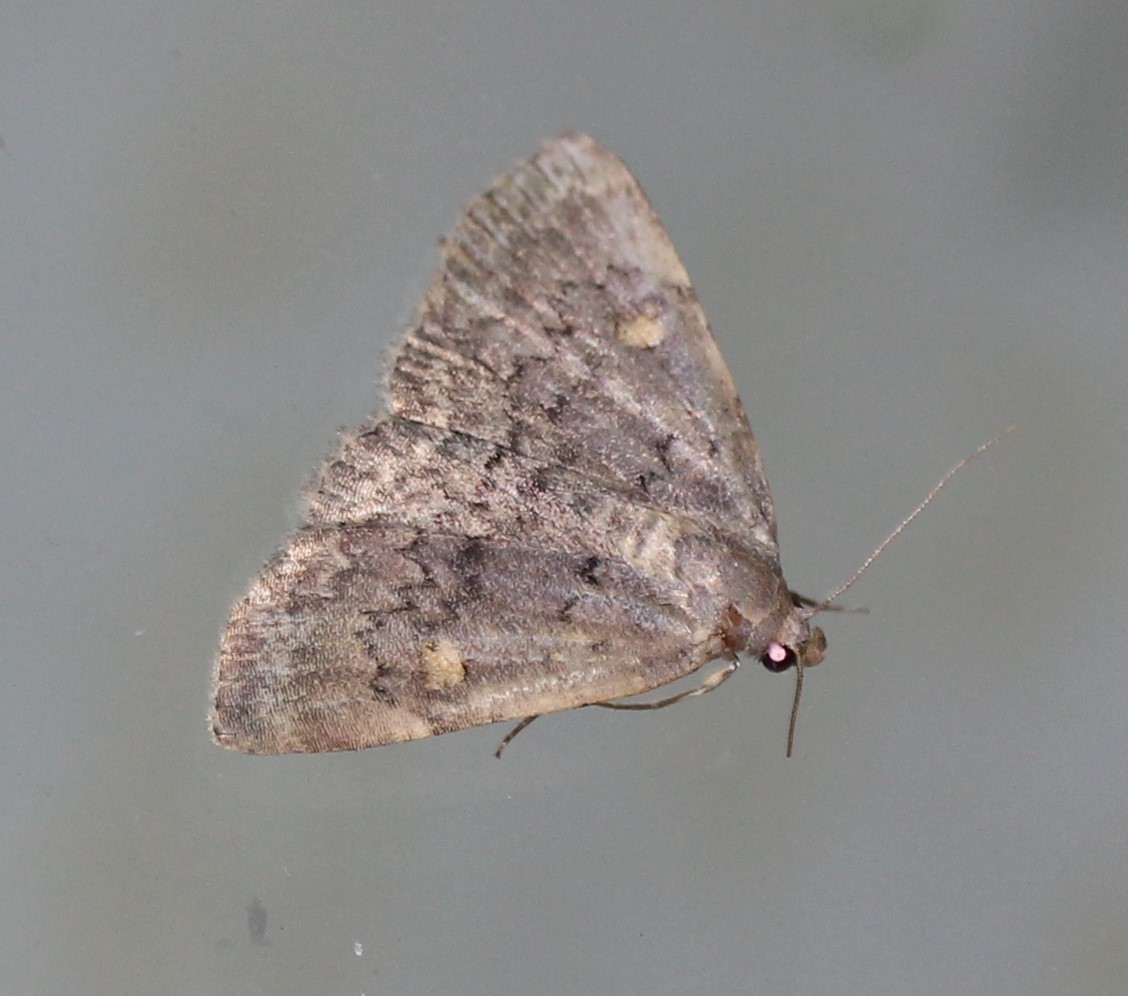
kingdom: Animalia
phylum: Arthropoda
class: Insecta
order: Lepidoptera
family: Erebidae
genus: Idia
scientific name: Idia aemula
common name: Common idia moth
